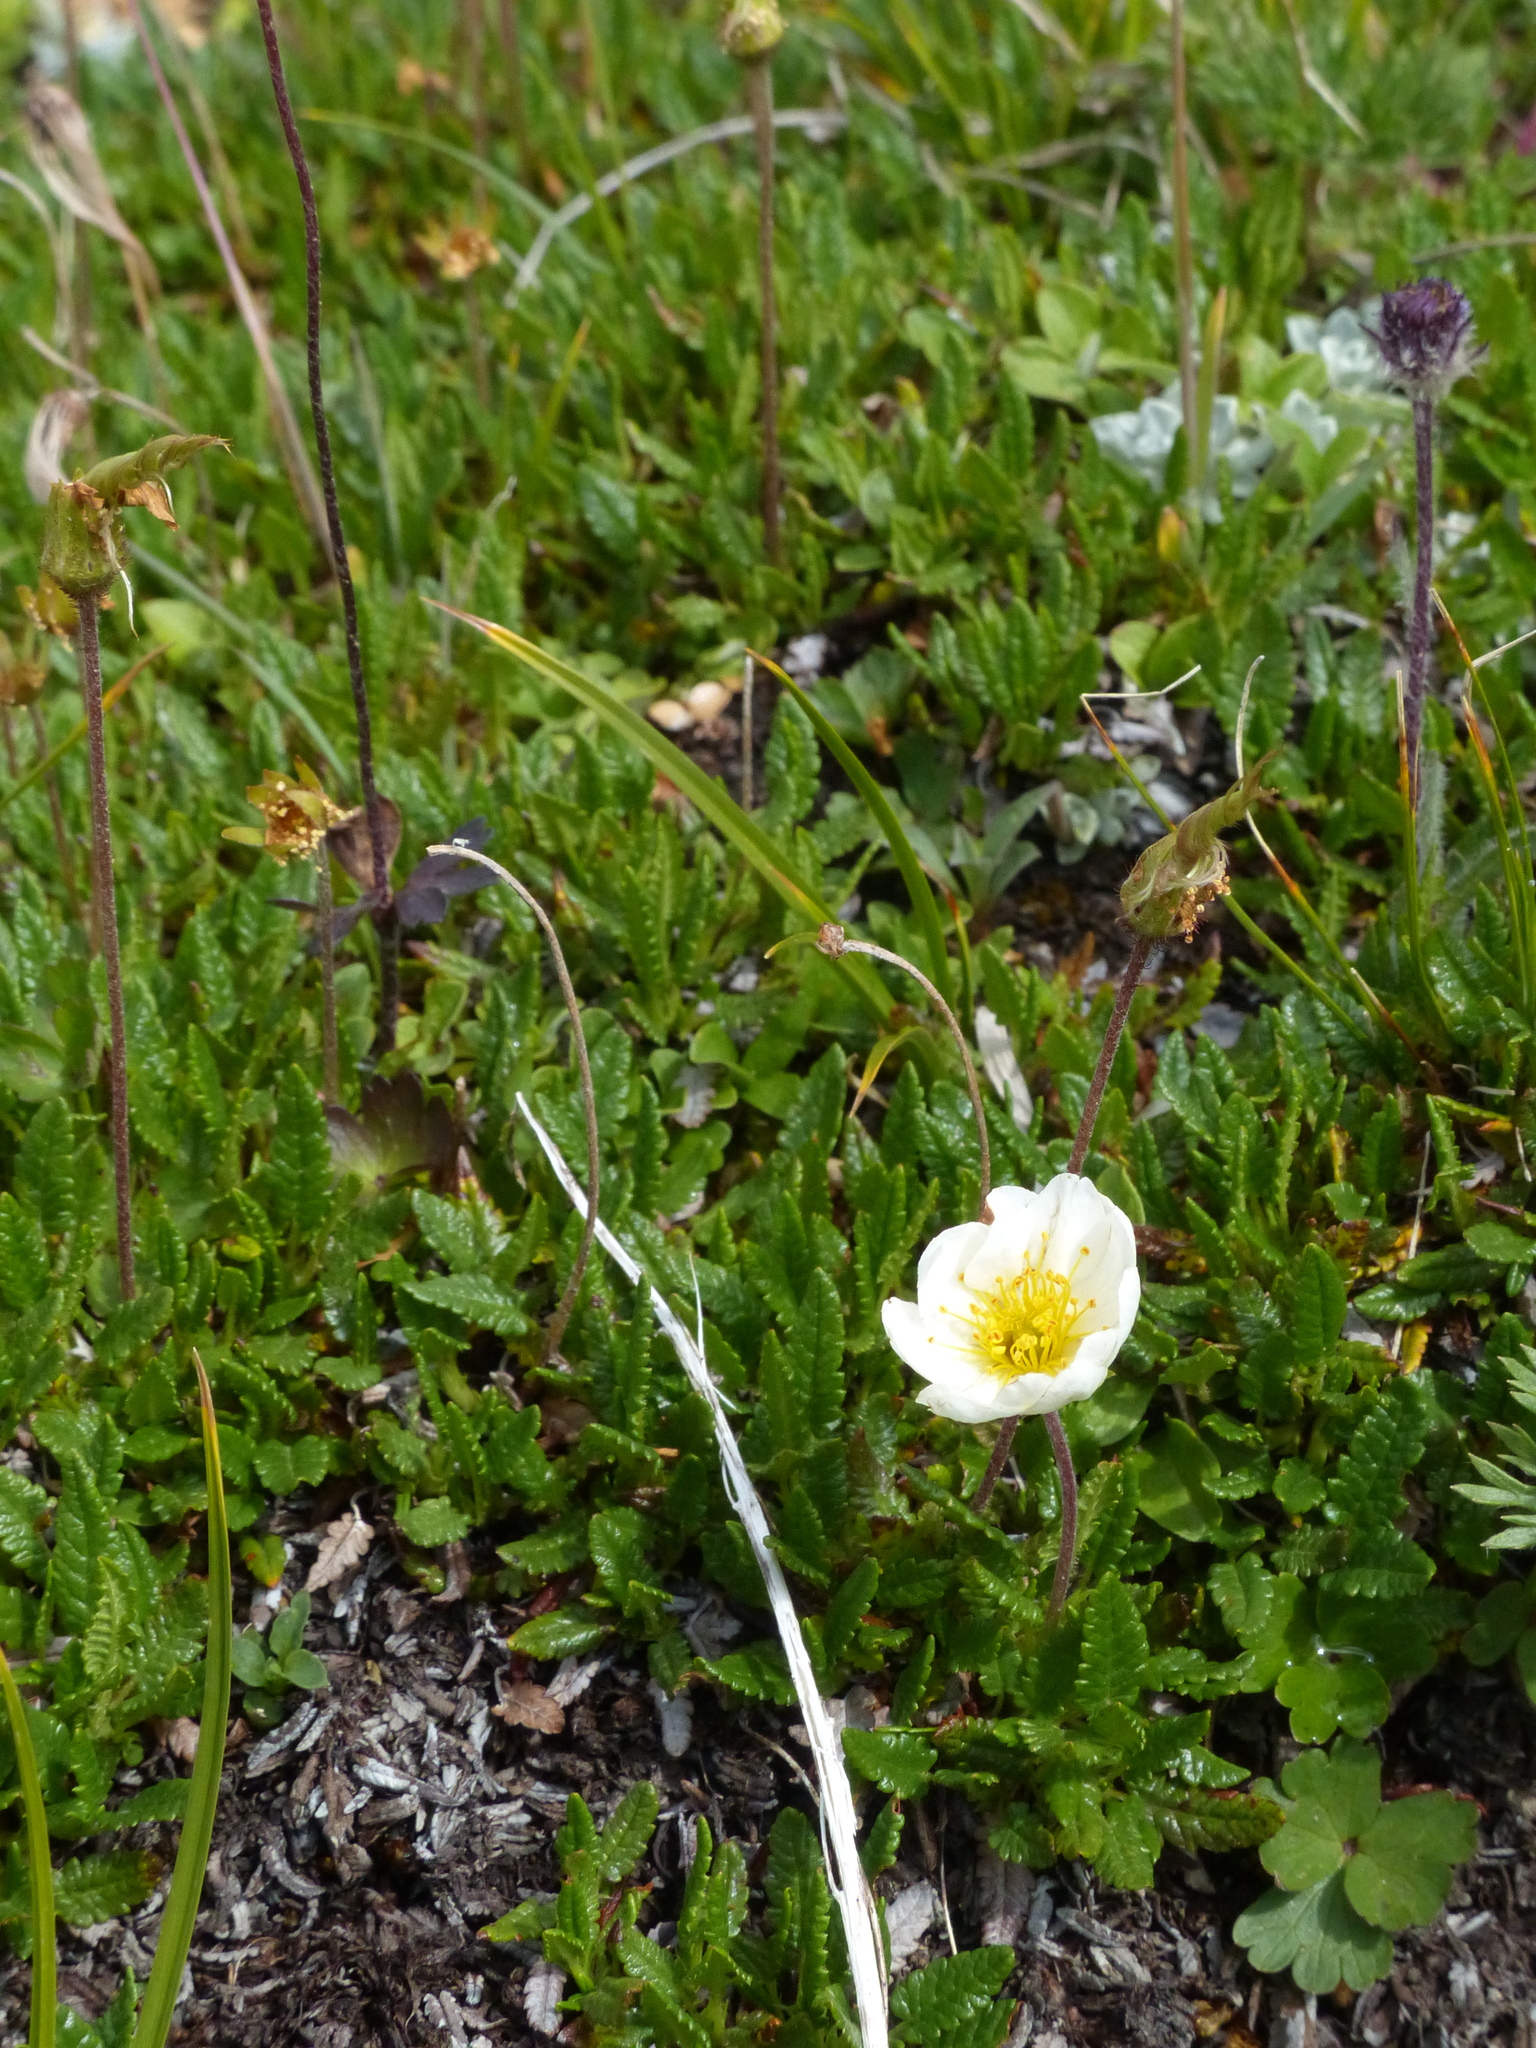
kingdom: Plantae
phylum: Tracheophyta
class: Magnoliopsida
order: Rosales
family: Rosaceae
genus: Dryas
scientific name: Dryas octopetala
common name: Eight-petal mountain-avens
